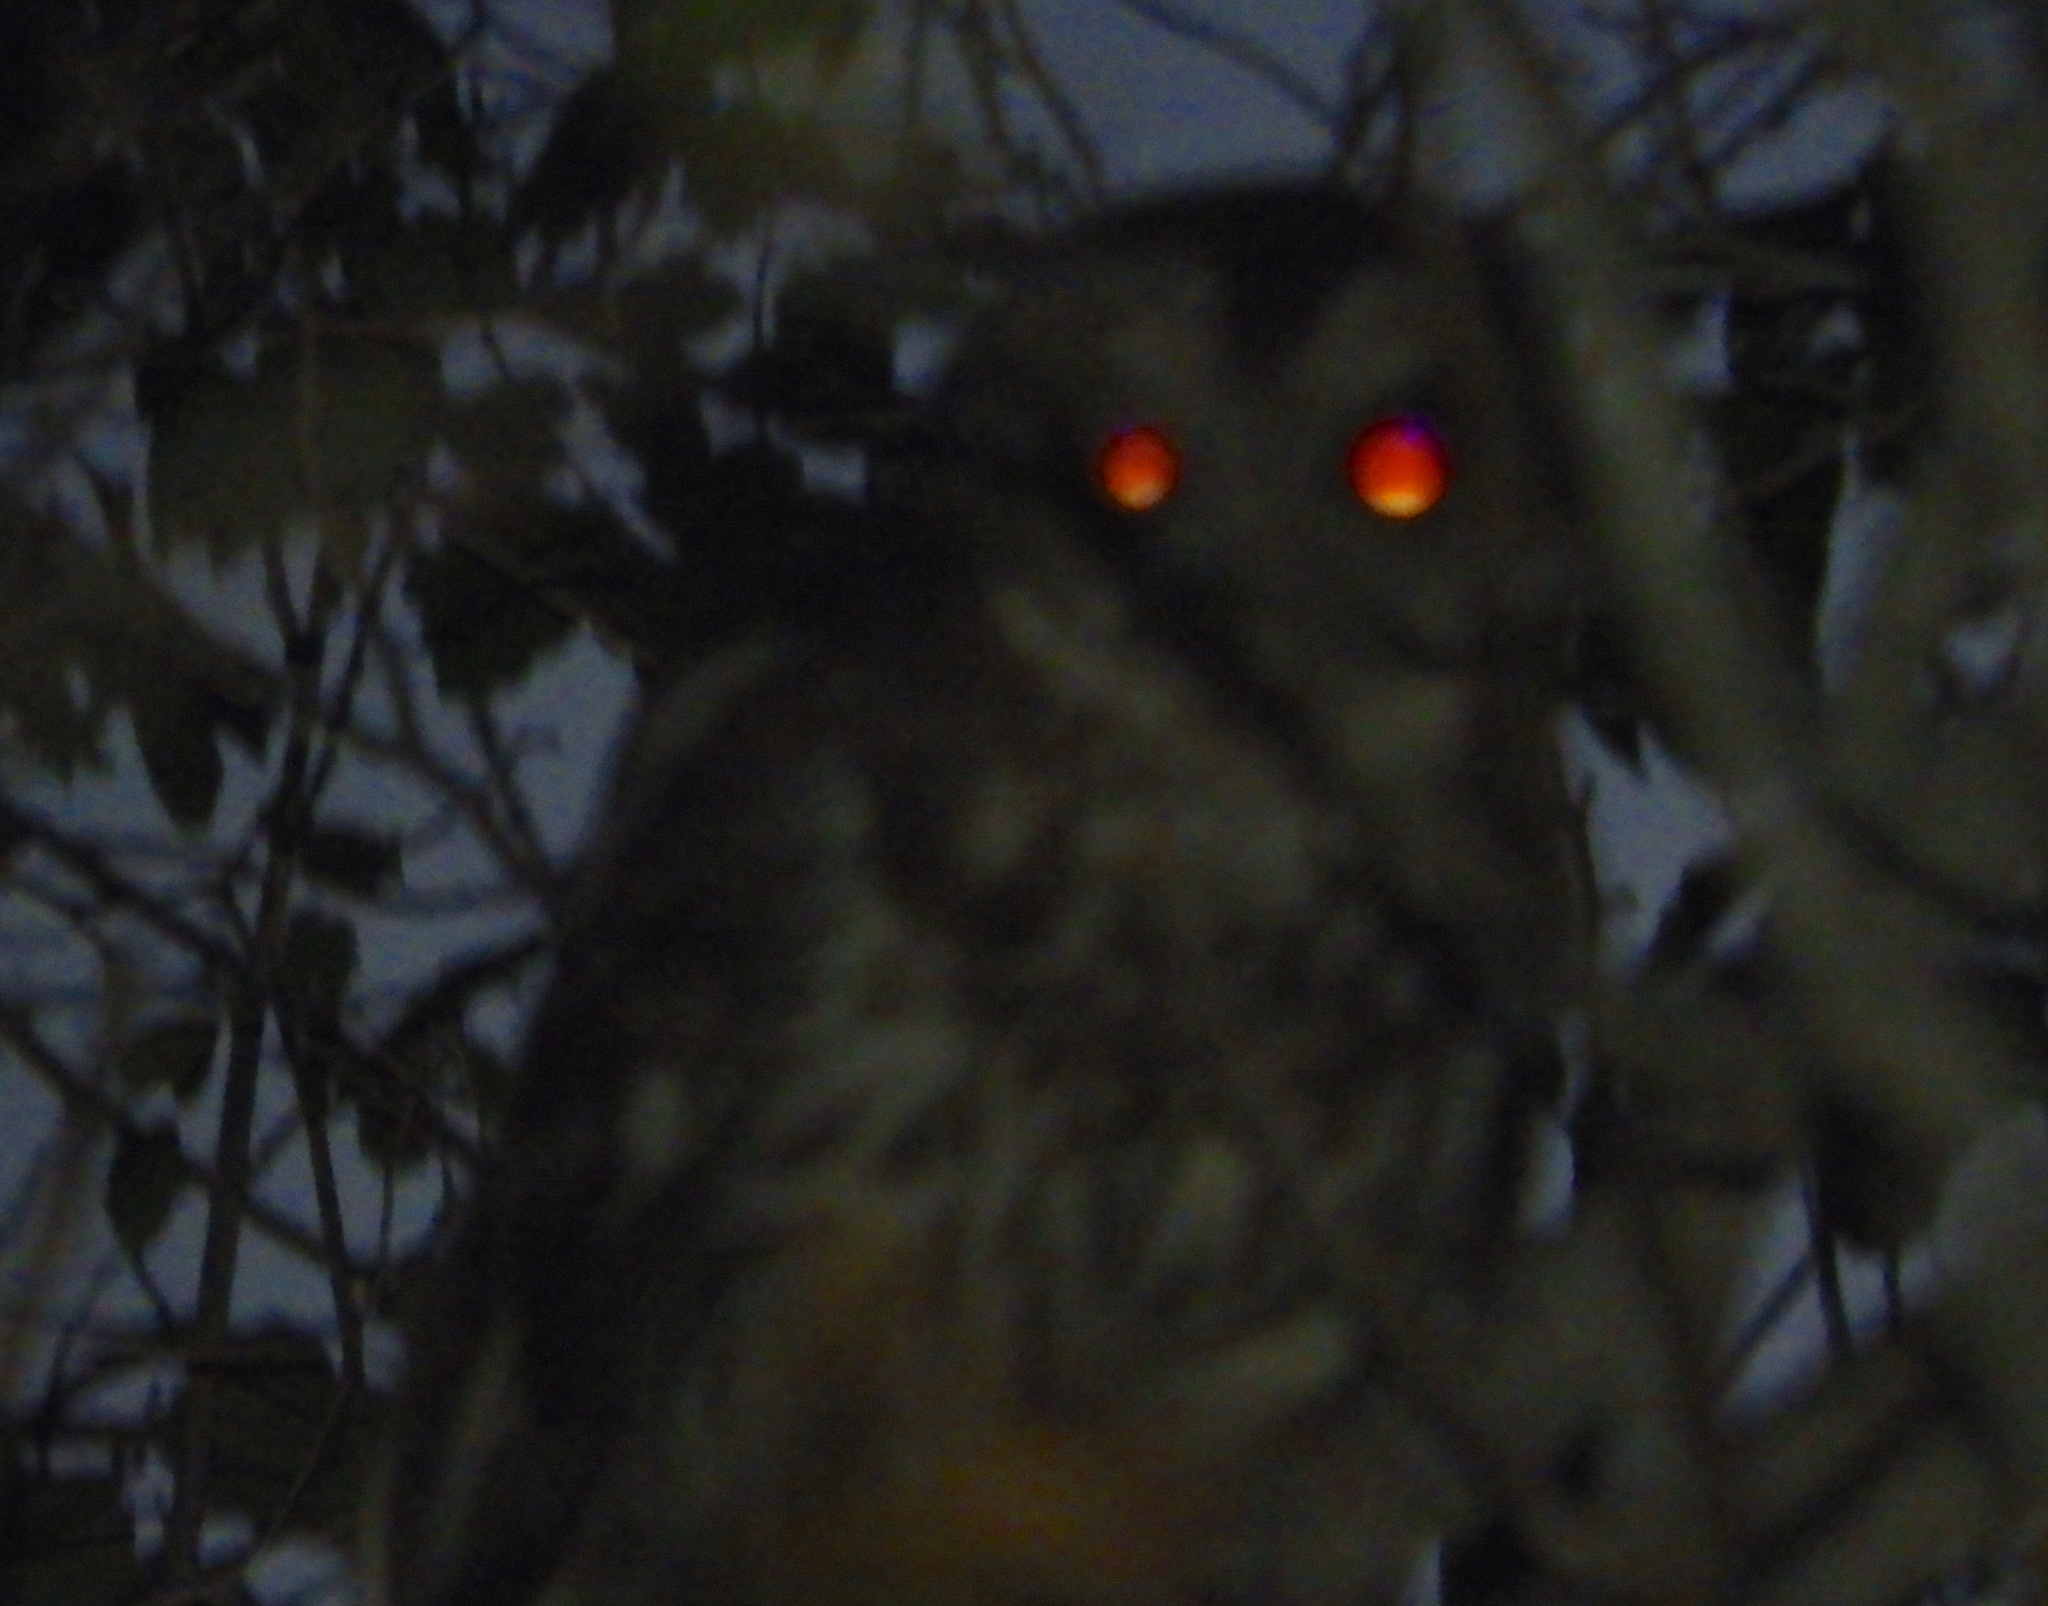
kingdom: Animalia
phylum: Chordata
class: Aves
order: Strigiformes
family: Strigidae
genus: Strix
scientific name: Strix virgata
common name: Mottled owl
